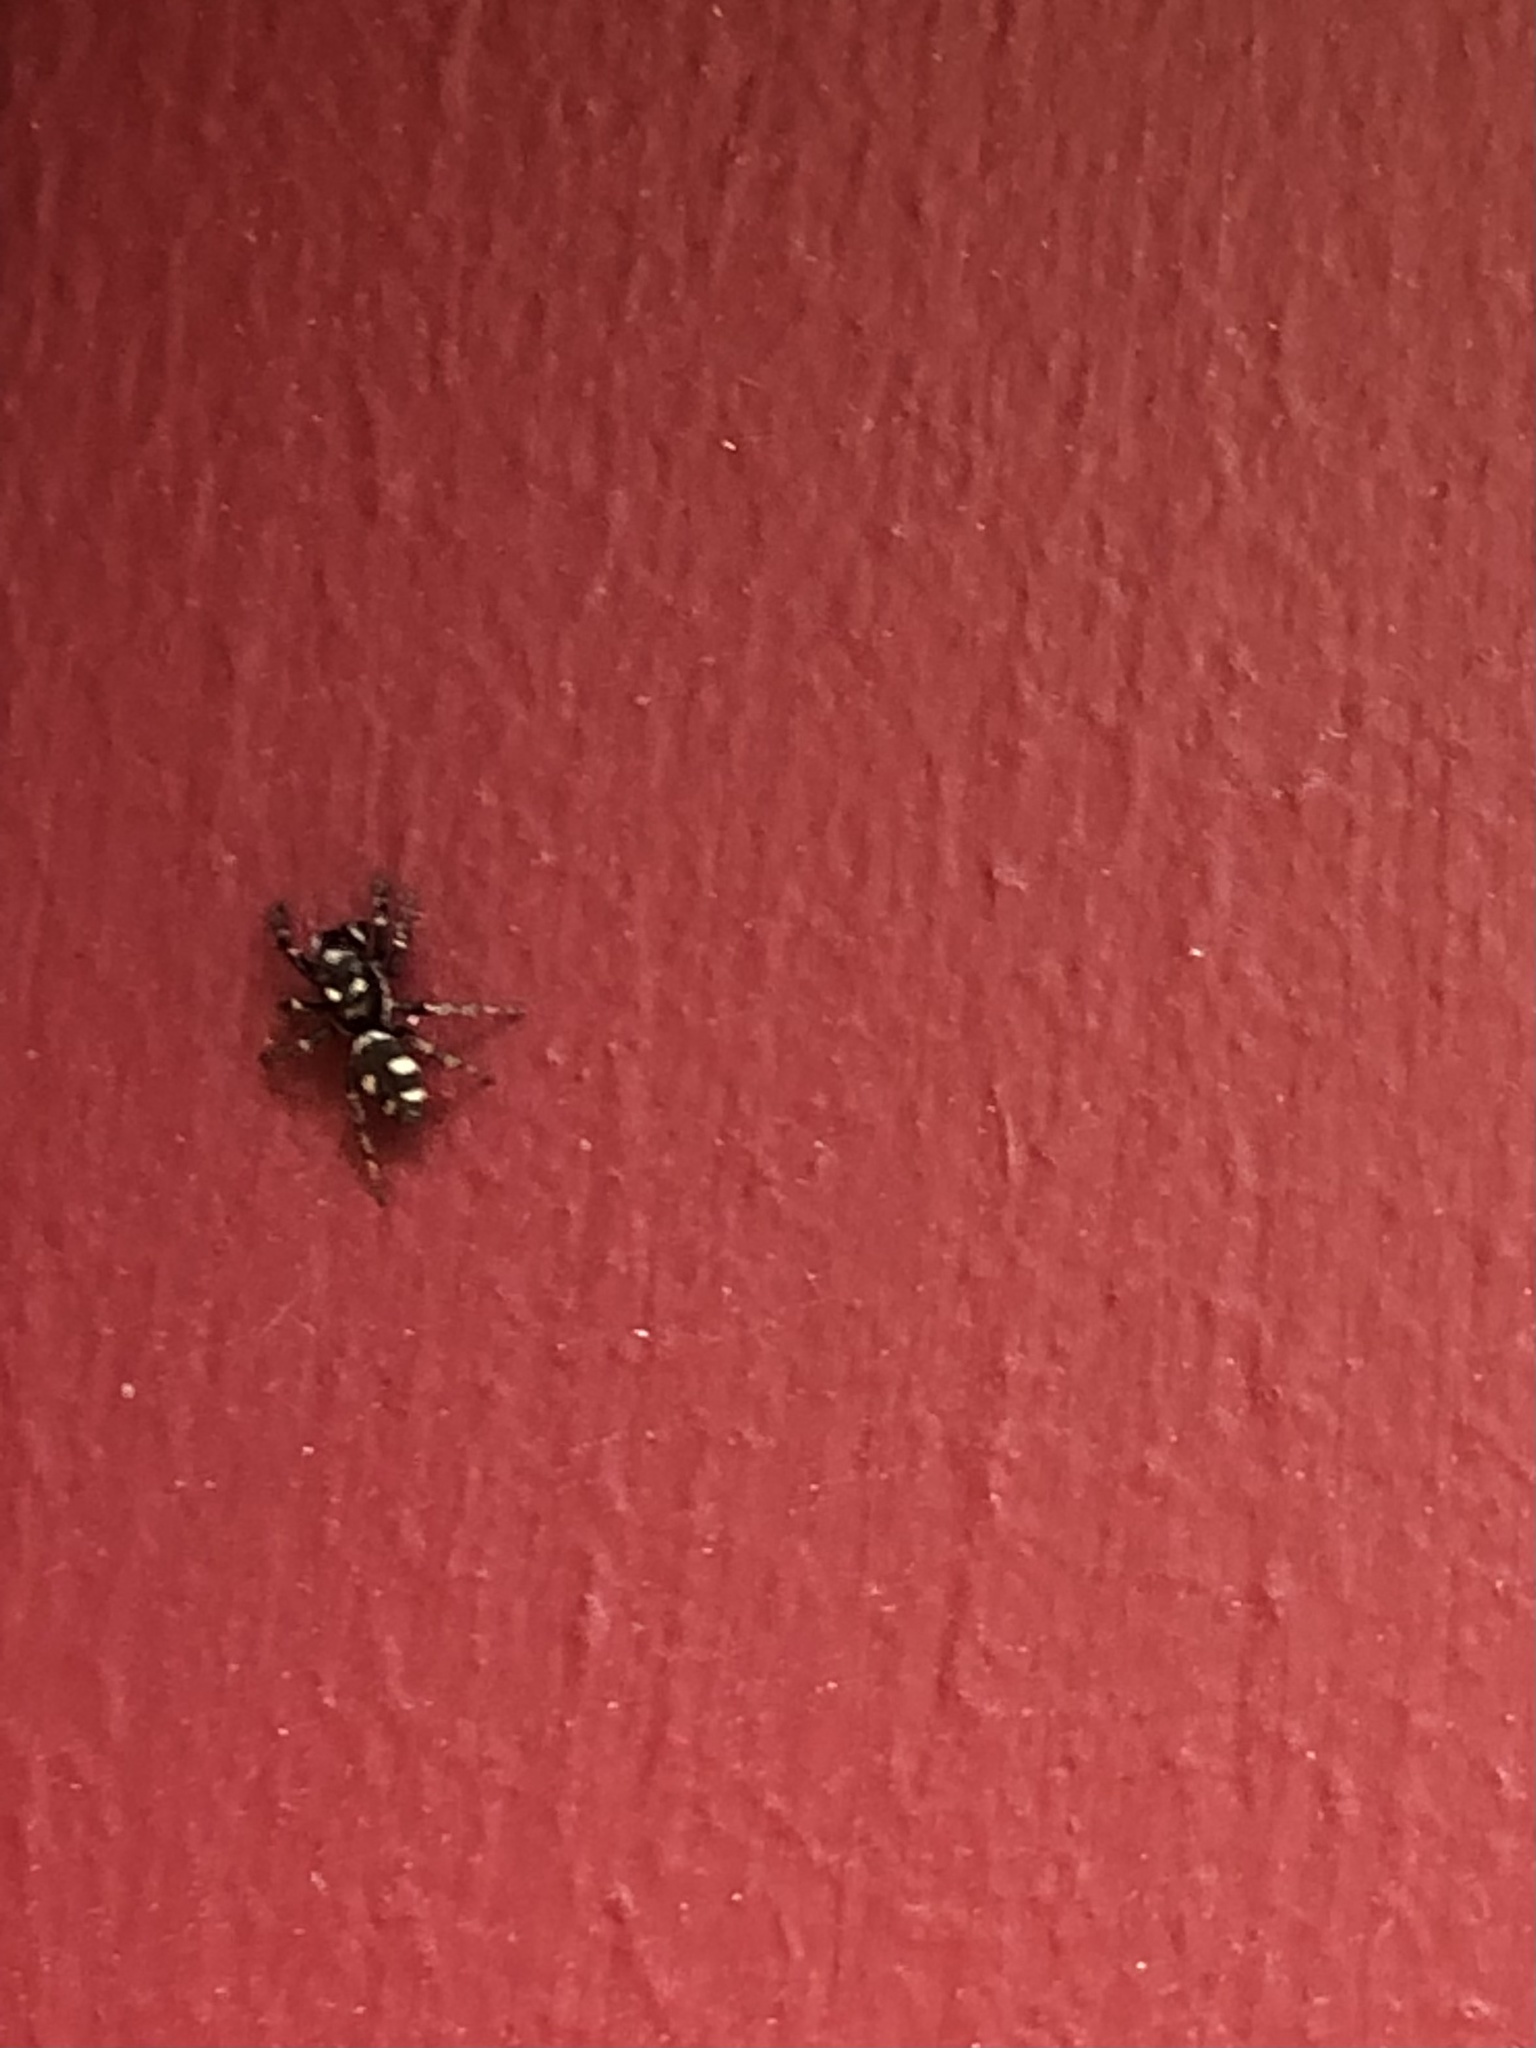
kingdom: Animalia
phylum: Arthropoda
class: Arachnida
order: Araneae
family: Salticidae
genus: Salticus
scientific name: Salticus scenicus
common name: Zebra jumper
